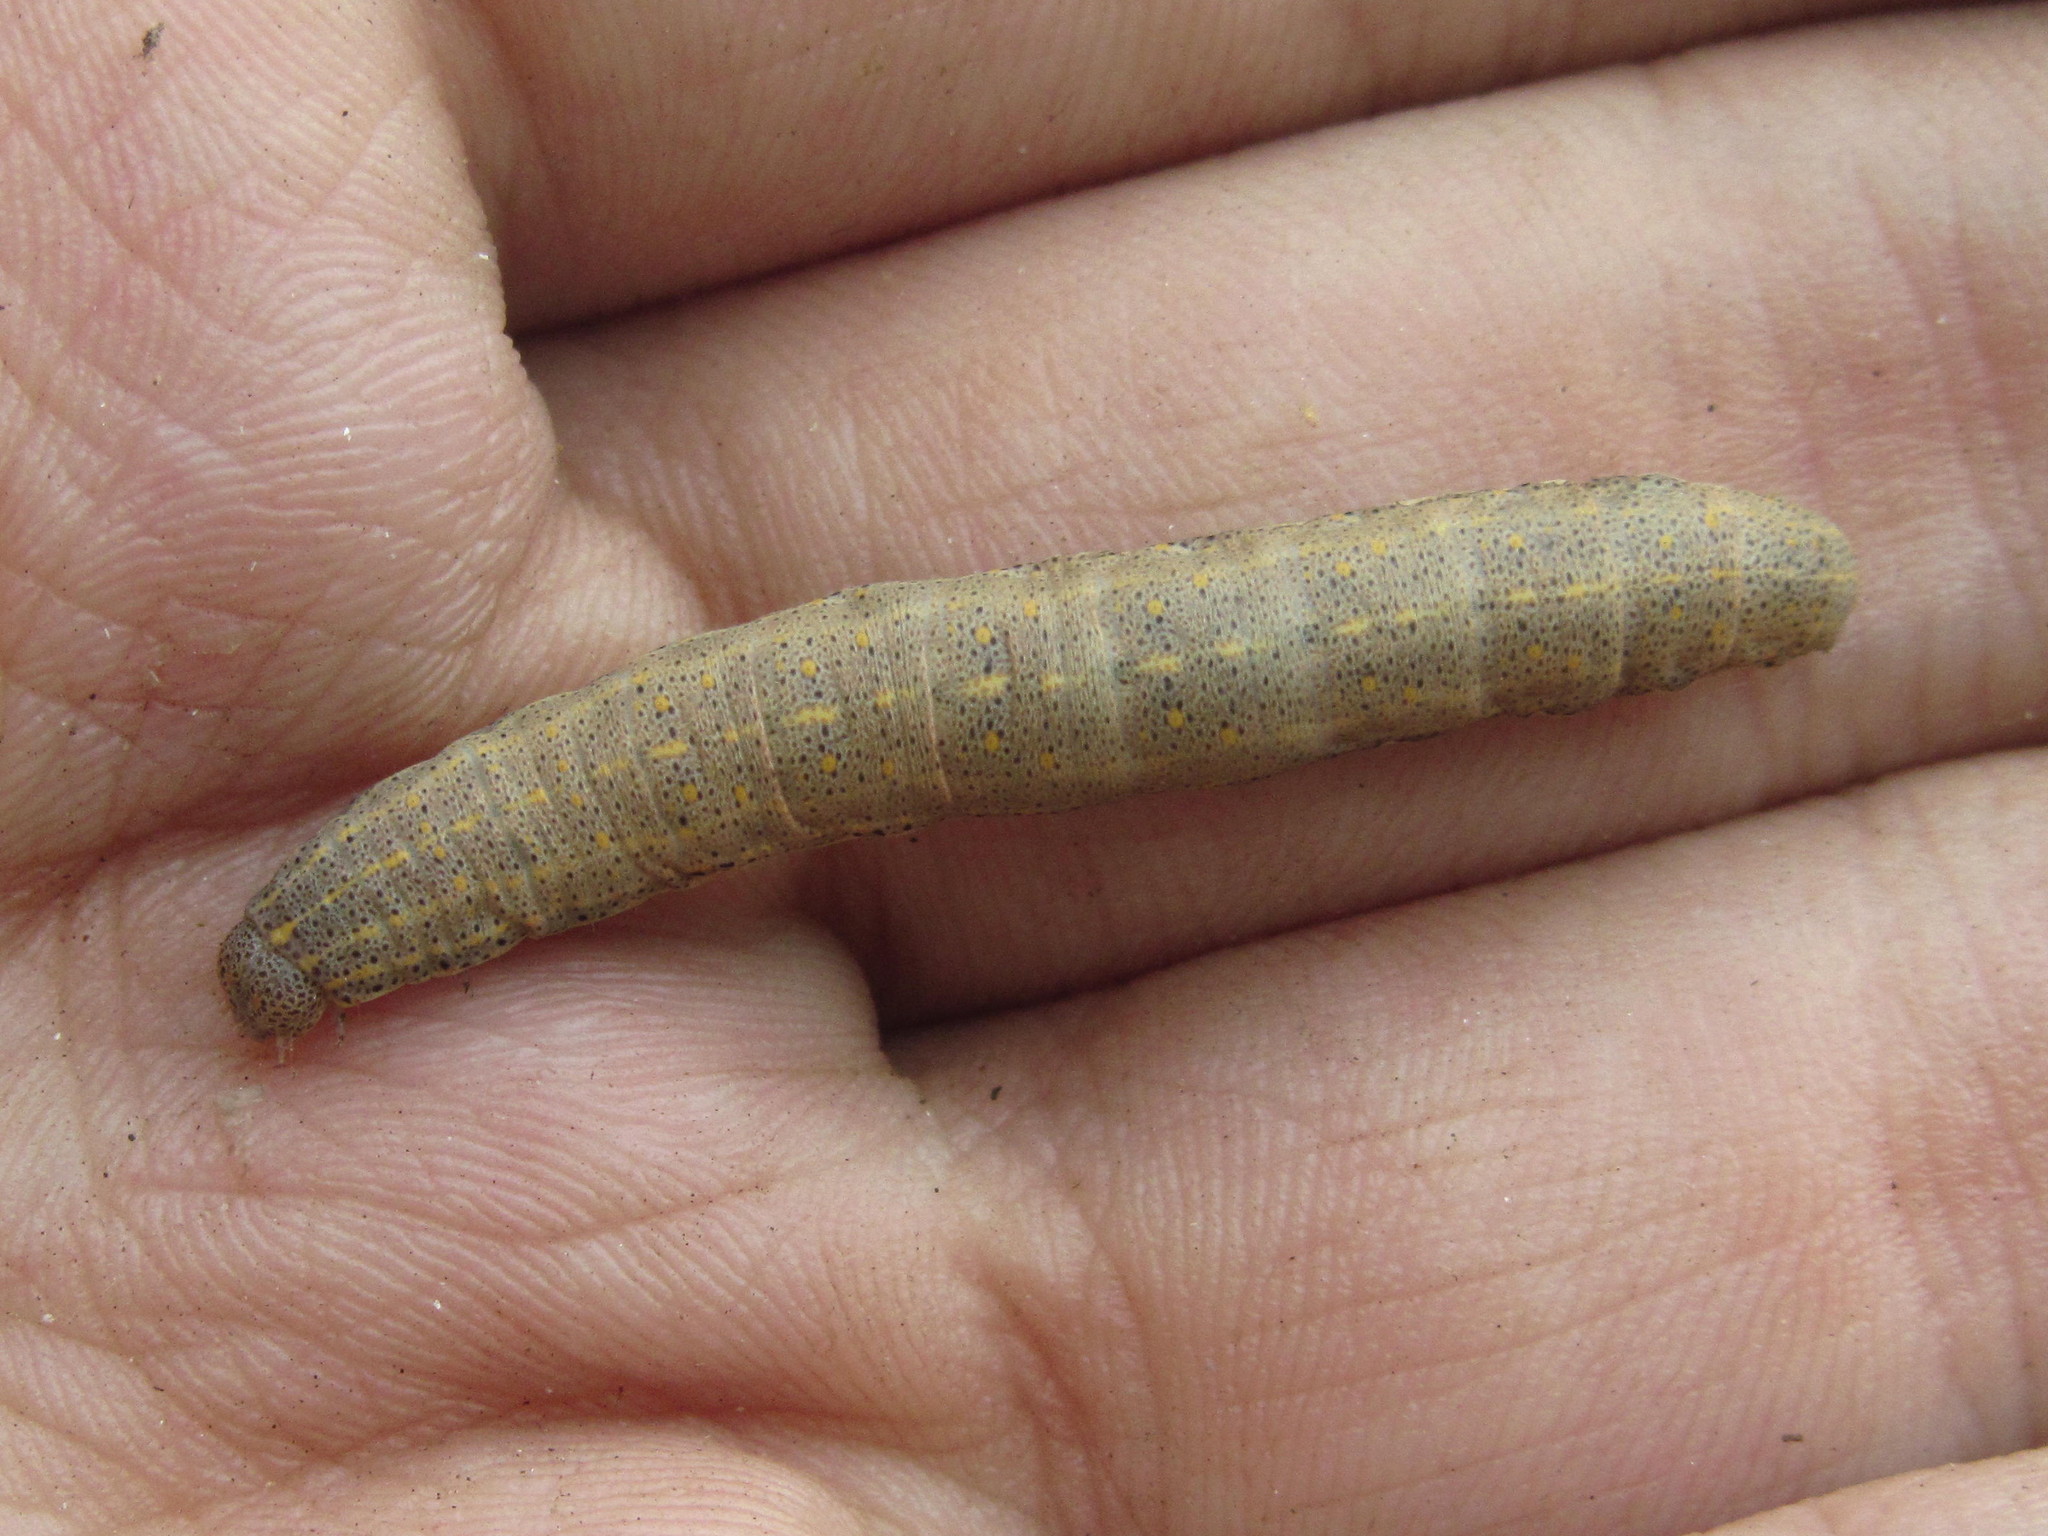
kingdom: Animalia
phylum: Arthropoda
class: Insecta
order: Lepidoptera
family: Noctuidae
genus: Aedia
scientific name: Aedia funesta
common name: The druid
